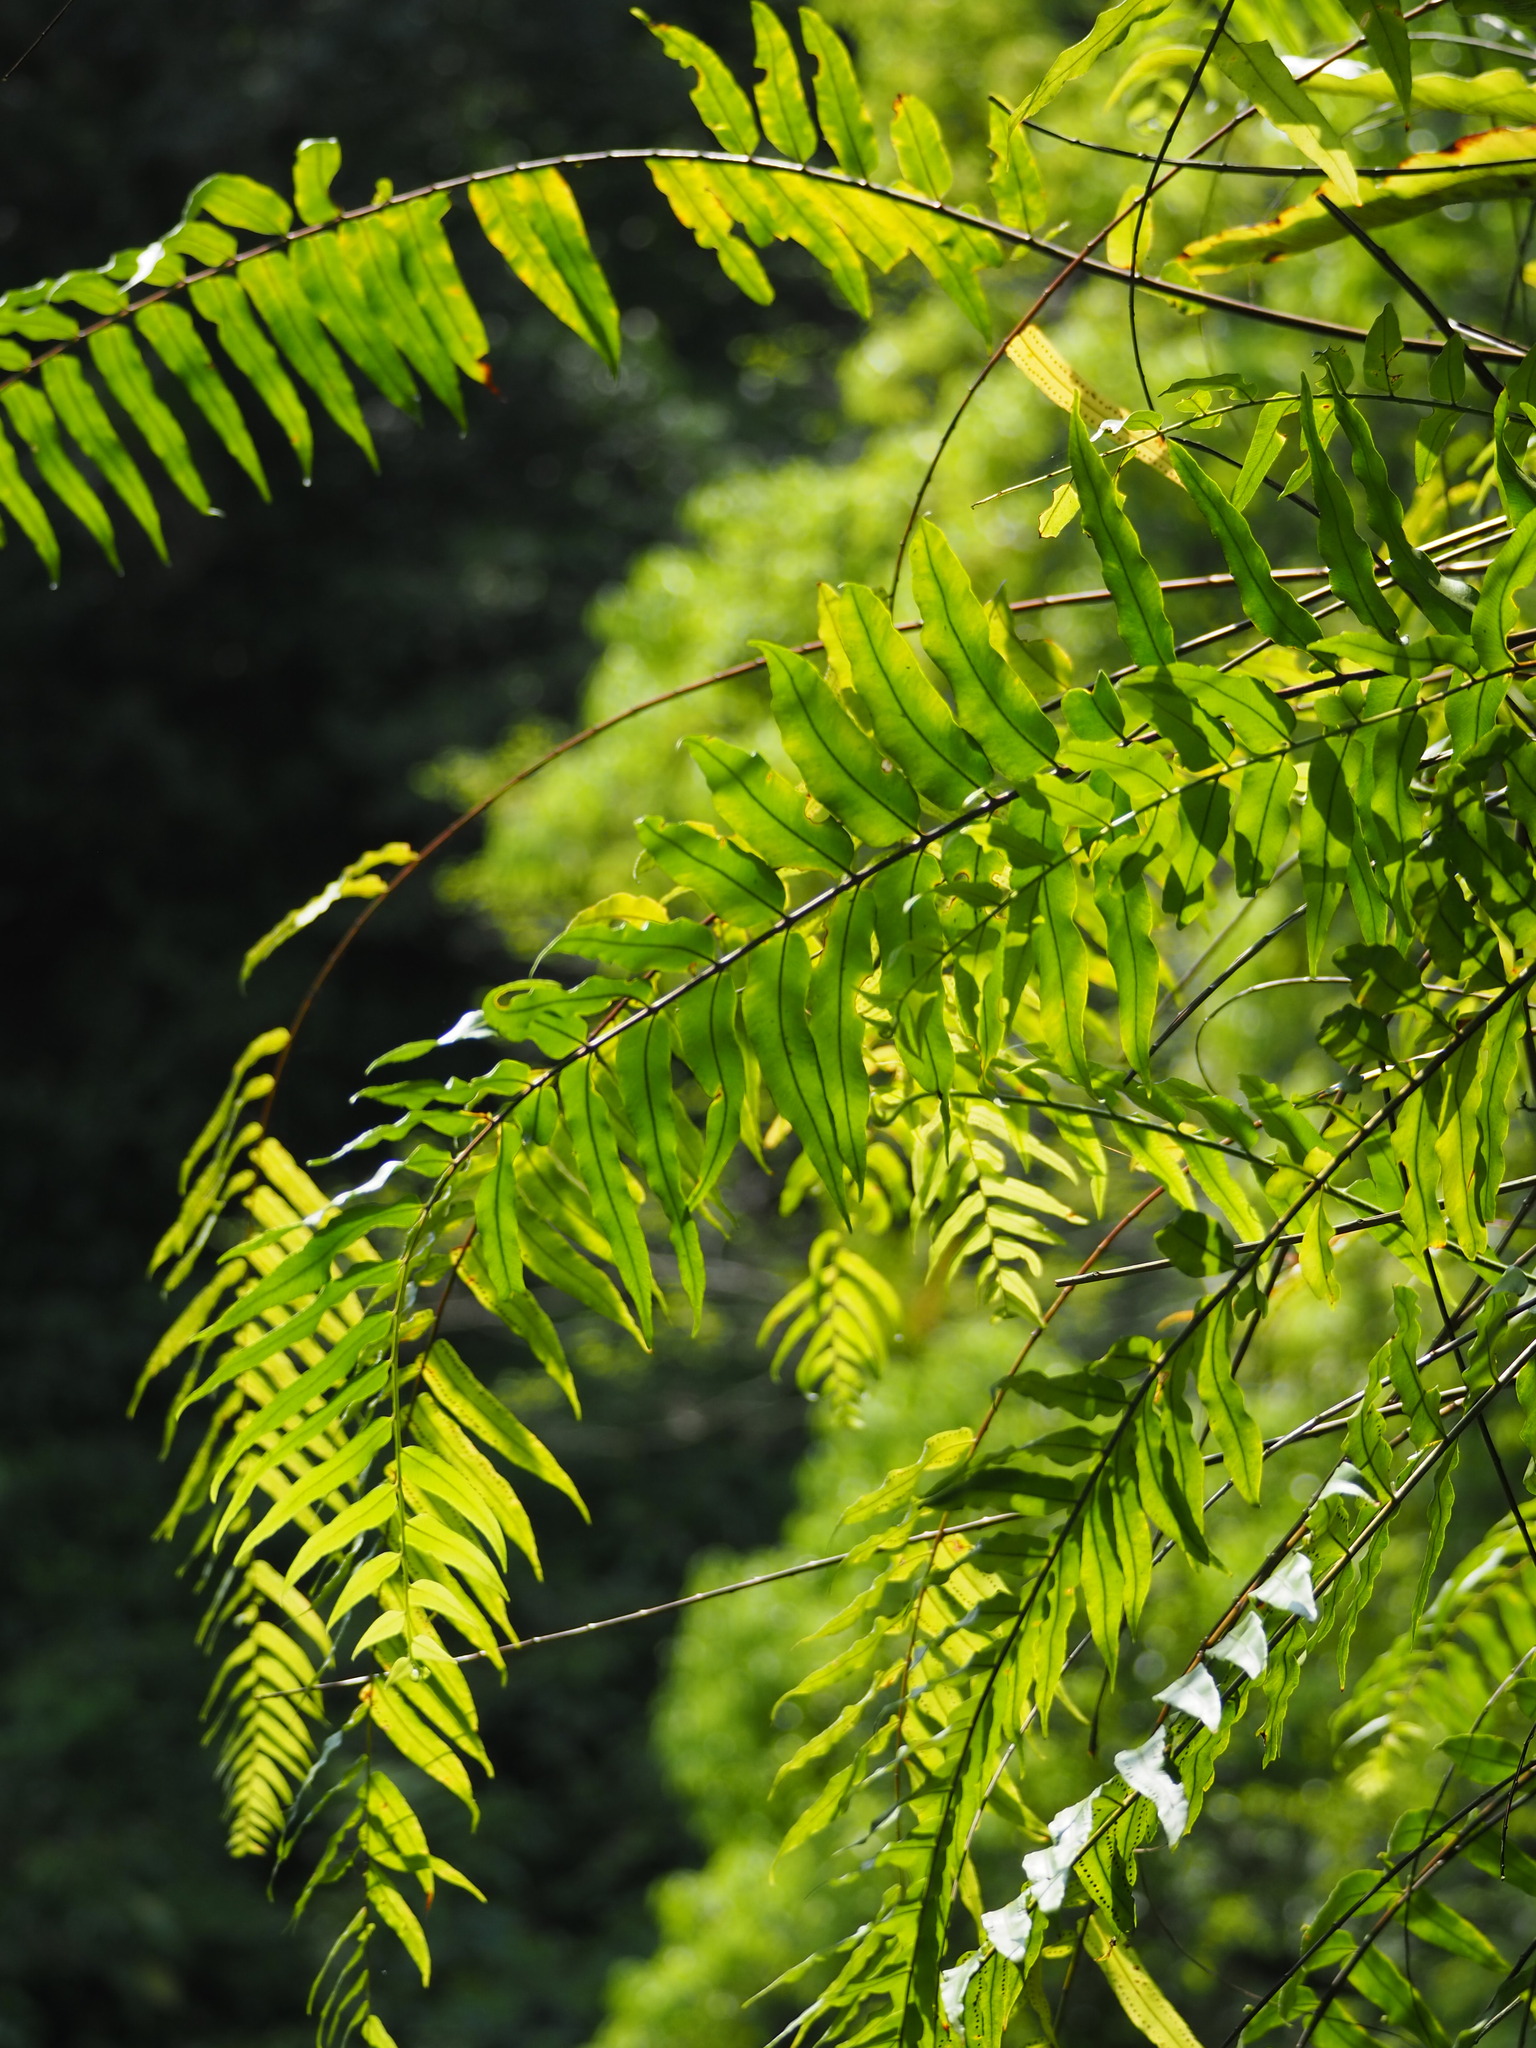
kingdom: Plantae
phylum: Tracheophyta
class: Polypodiopsida
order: Polypodiales
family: Nephrolepidaceae
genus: Nephrolepis
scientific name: Nephrolepis biserrata
